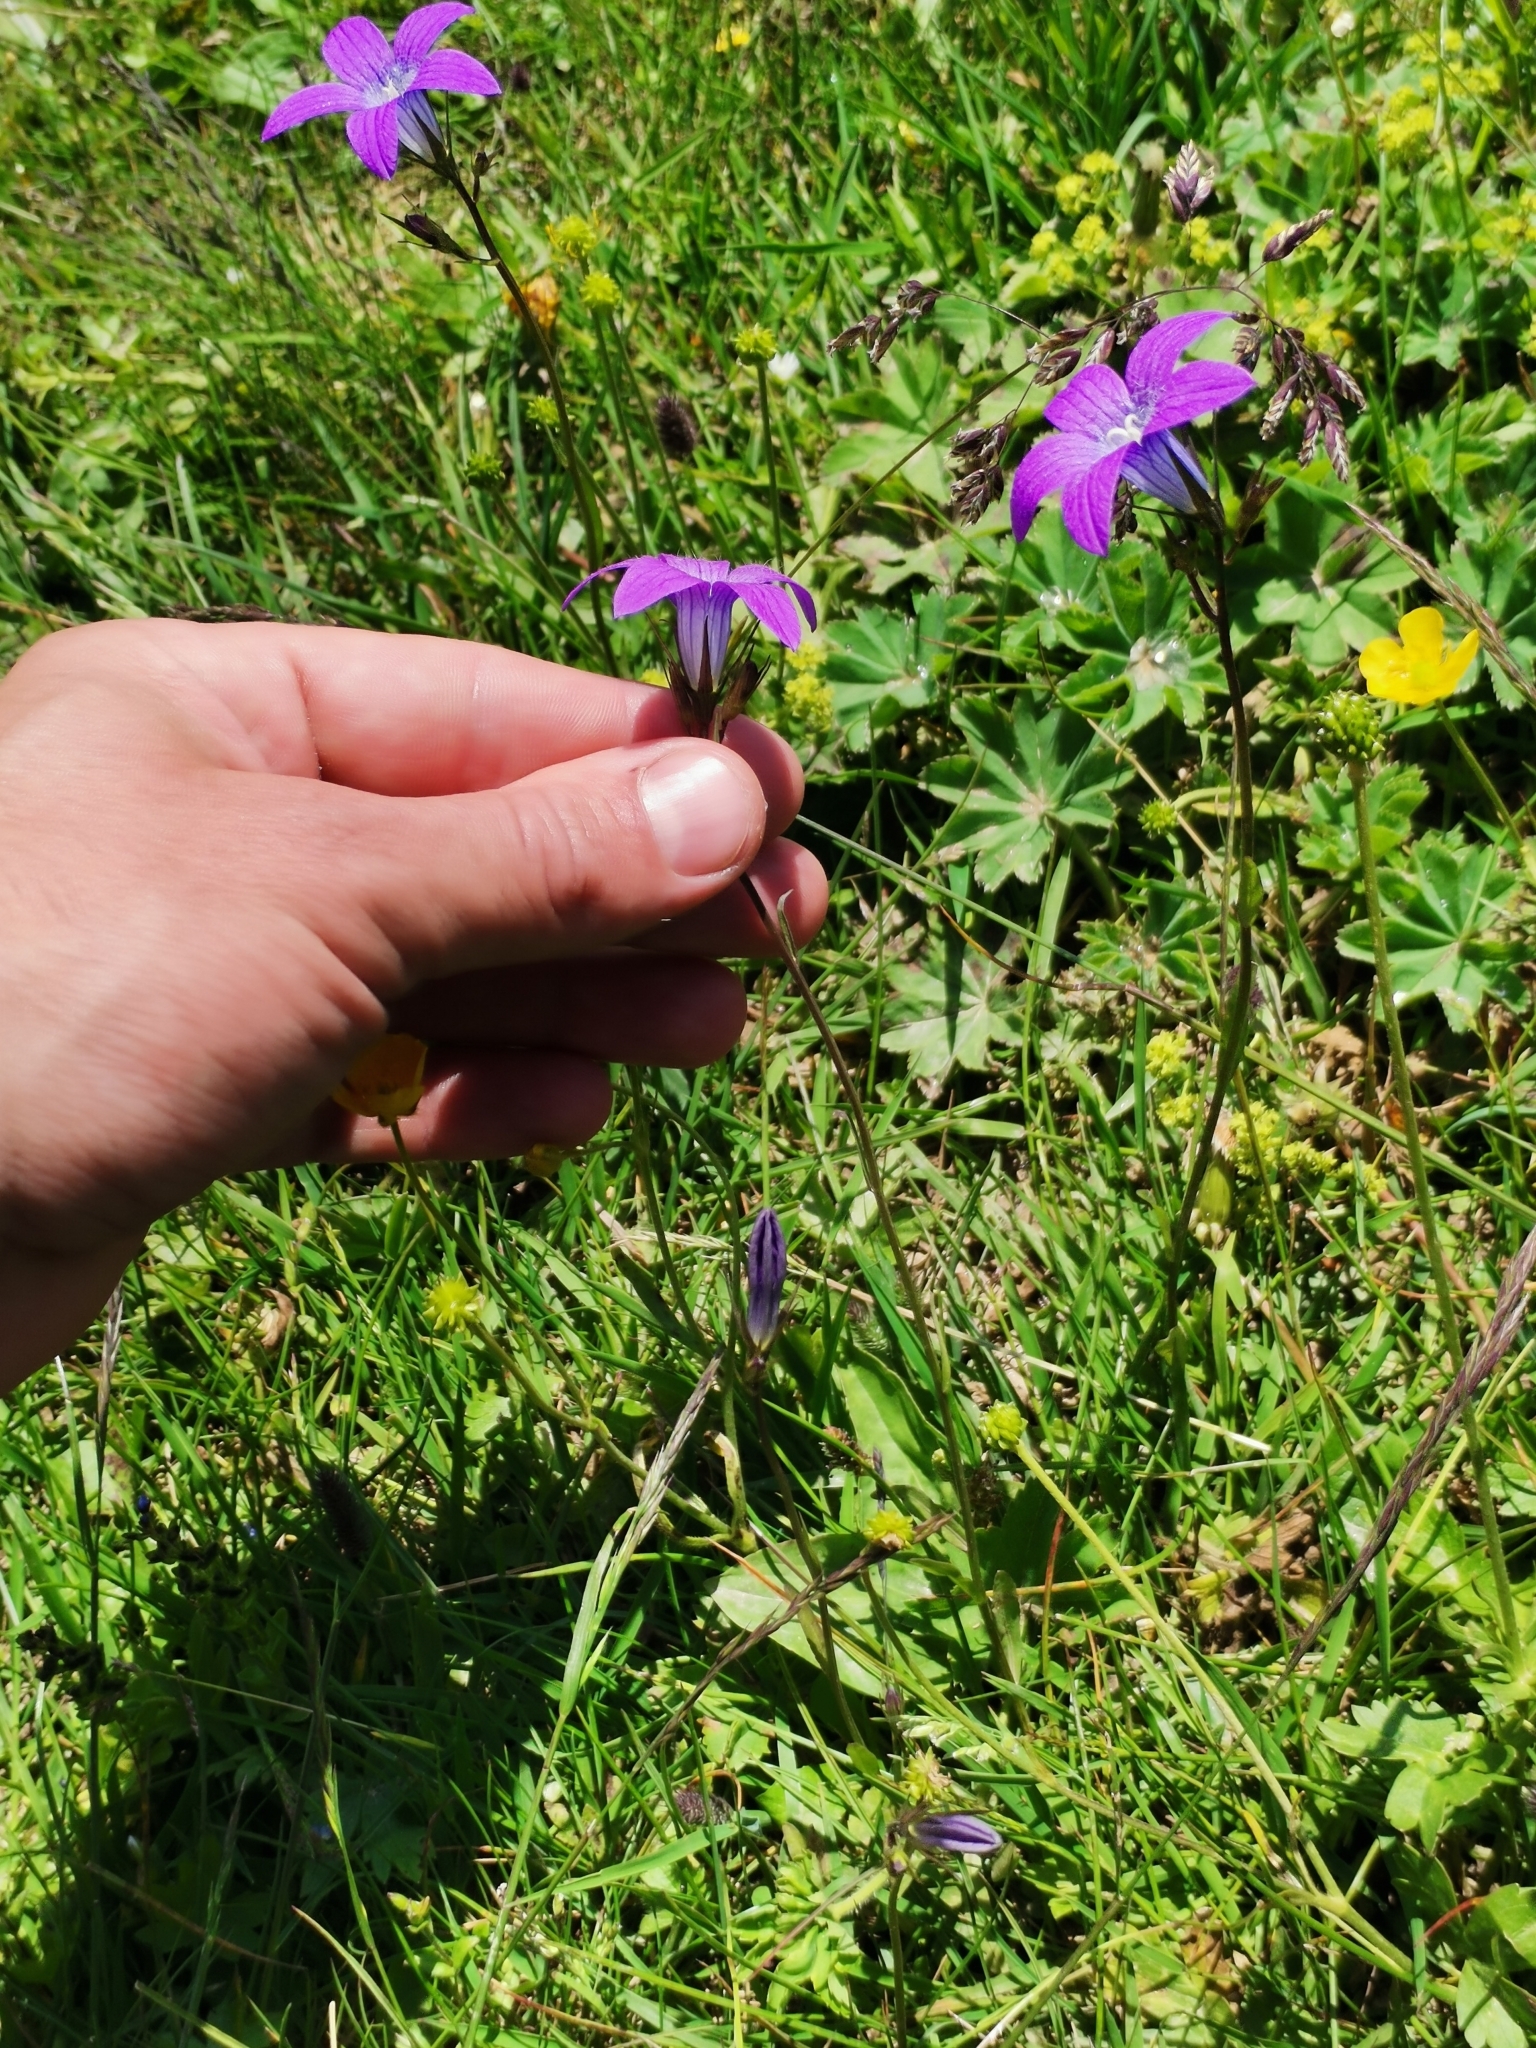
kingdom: Plantae
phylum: Tracheophyta
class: Magnoliopsida
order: Asterales
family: Campanulaceae
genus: Campanula
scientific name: Campanula patula
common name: Spreading bellflower
